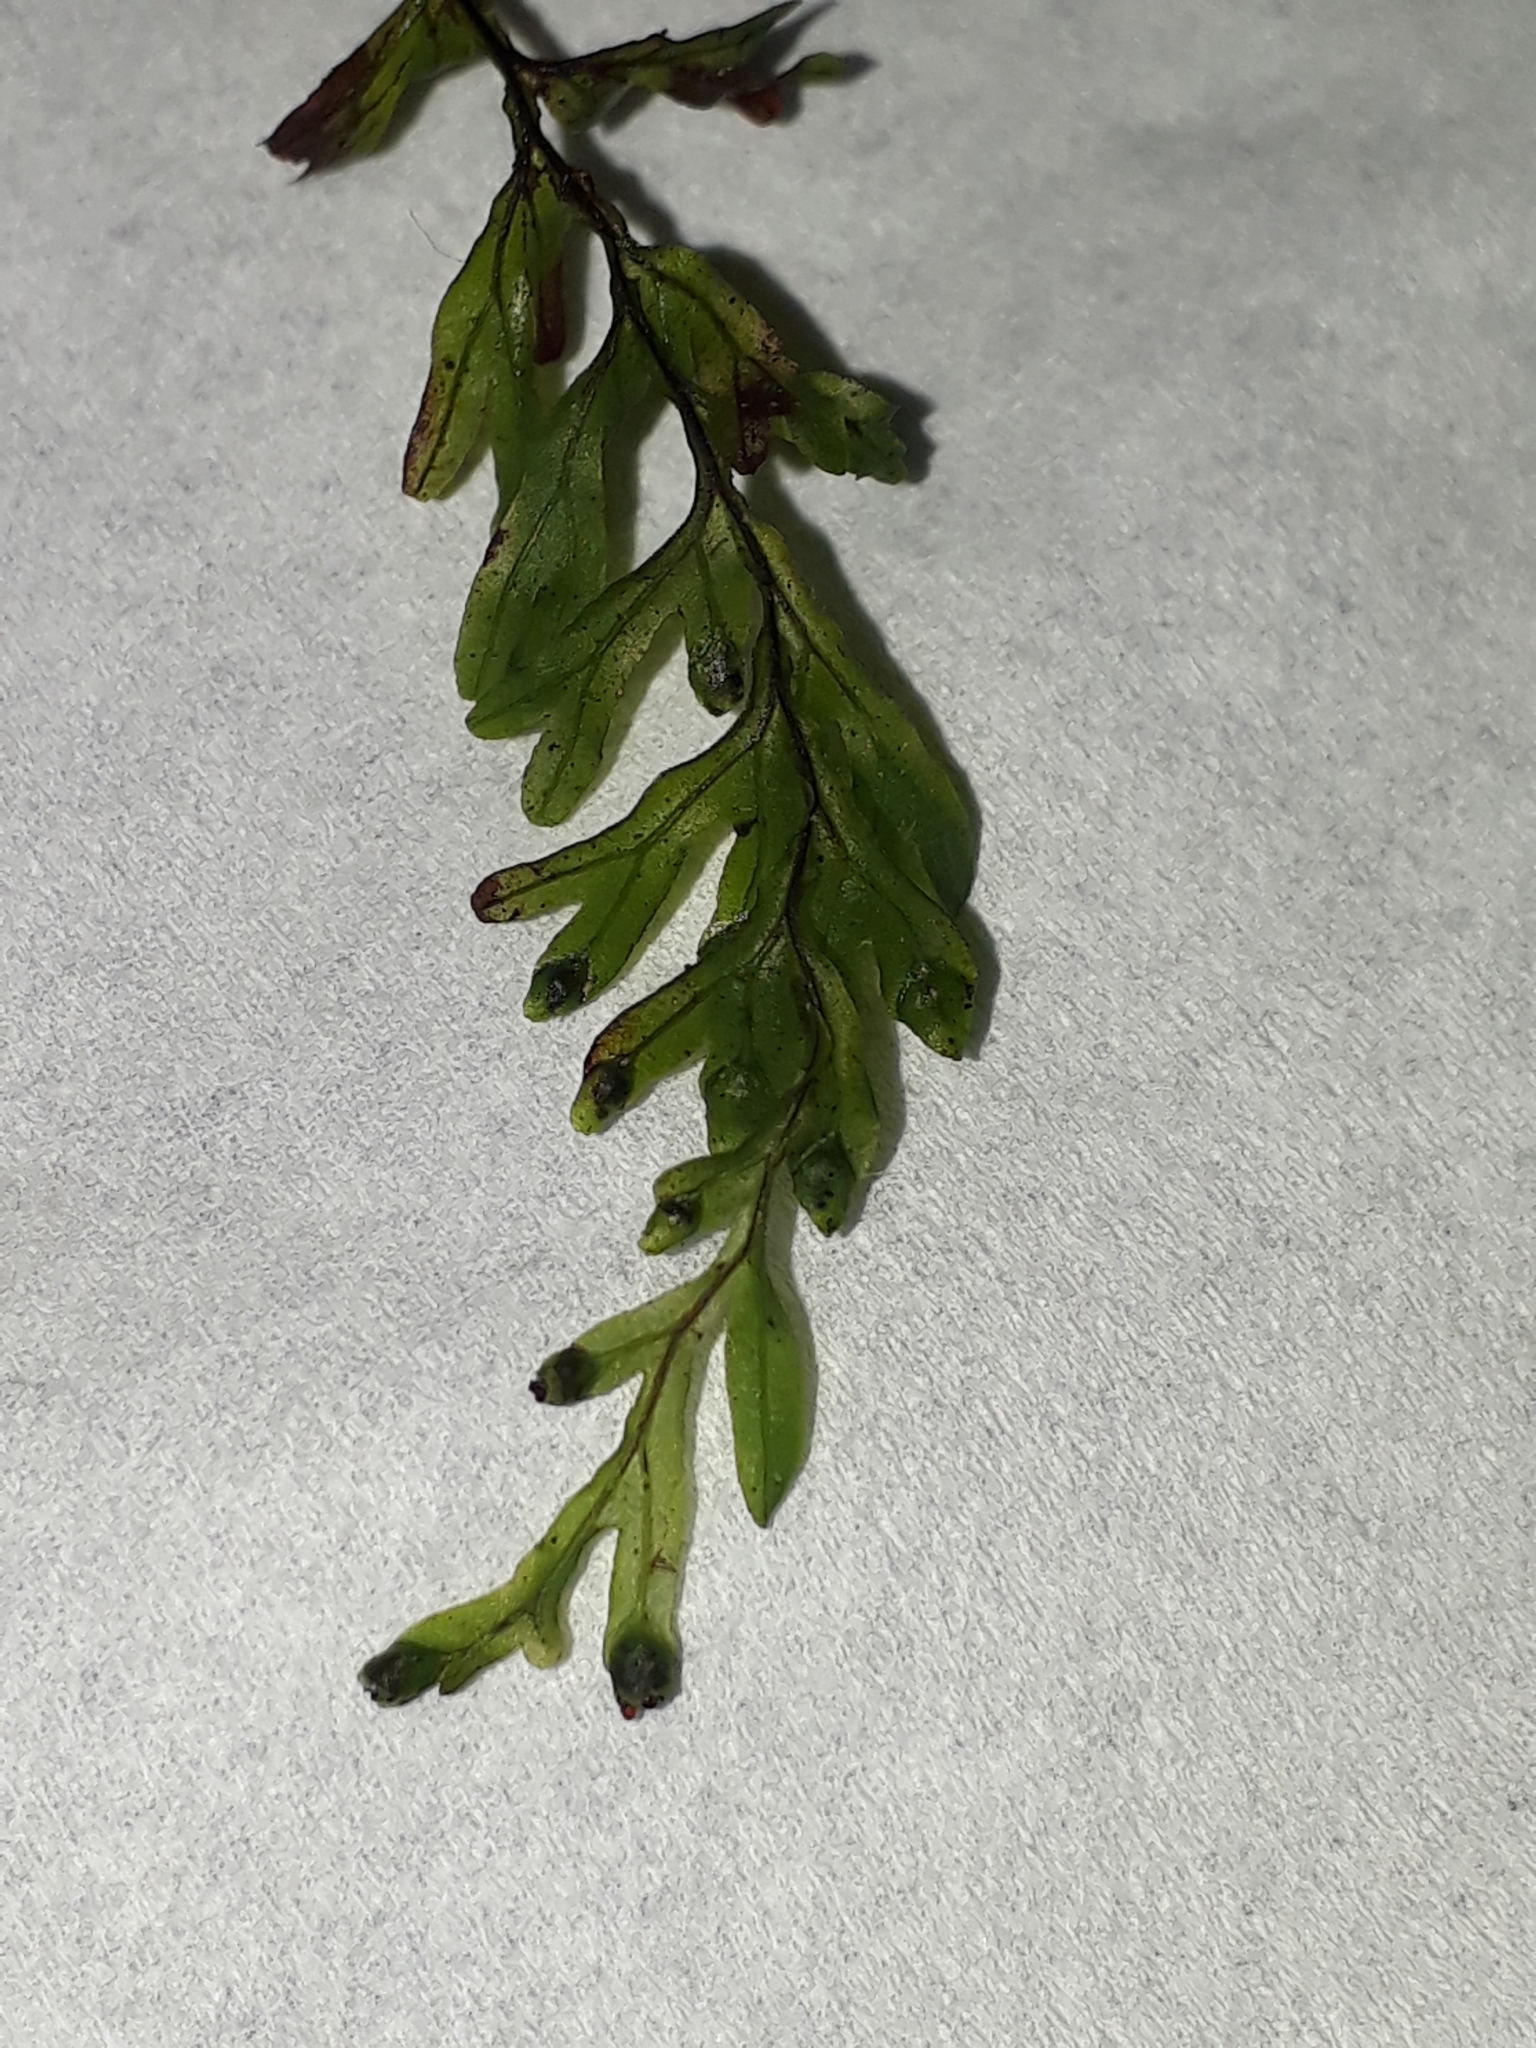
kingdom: Plantae
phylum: Tracheophyta
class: Polypodiopsida
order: Hymenophyllales
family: Hymenophyllaceae
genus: Hymenophyllum
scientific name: Hymenophyllum rarum
